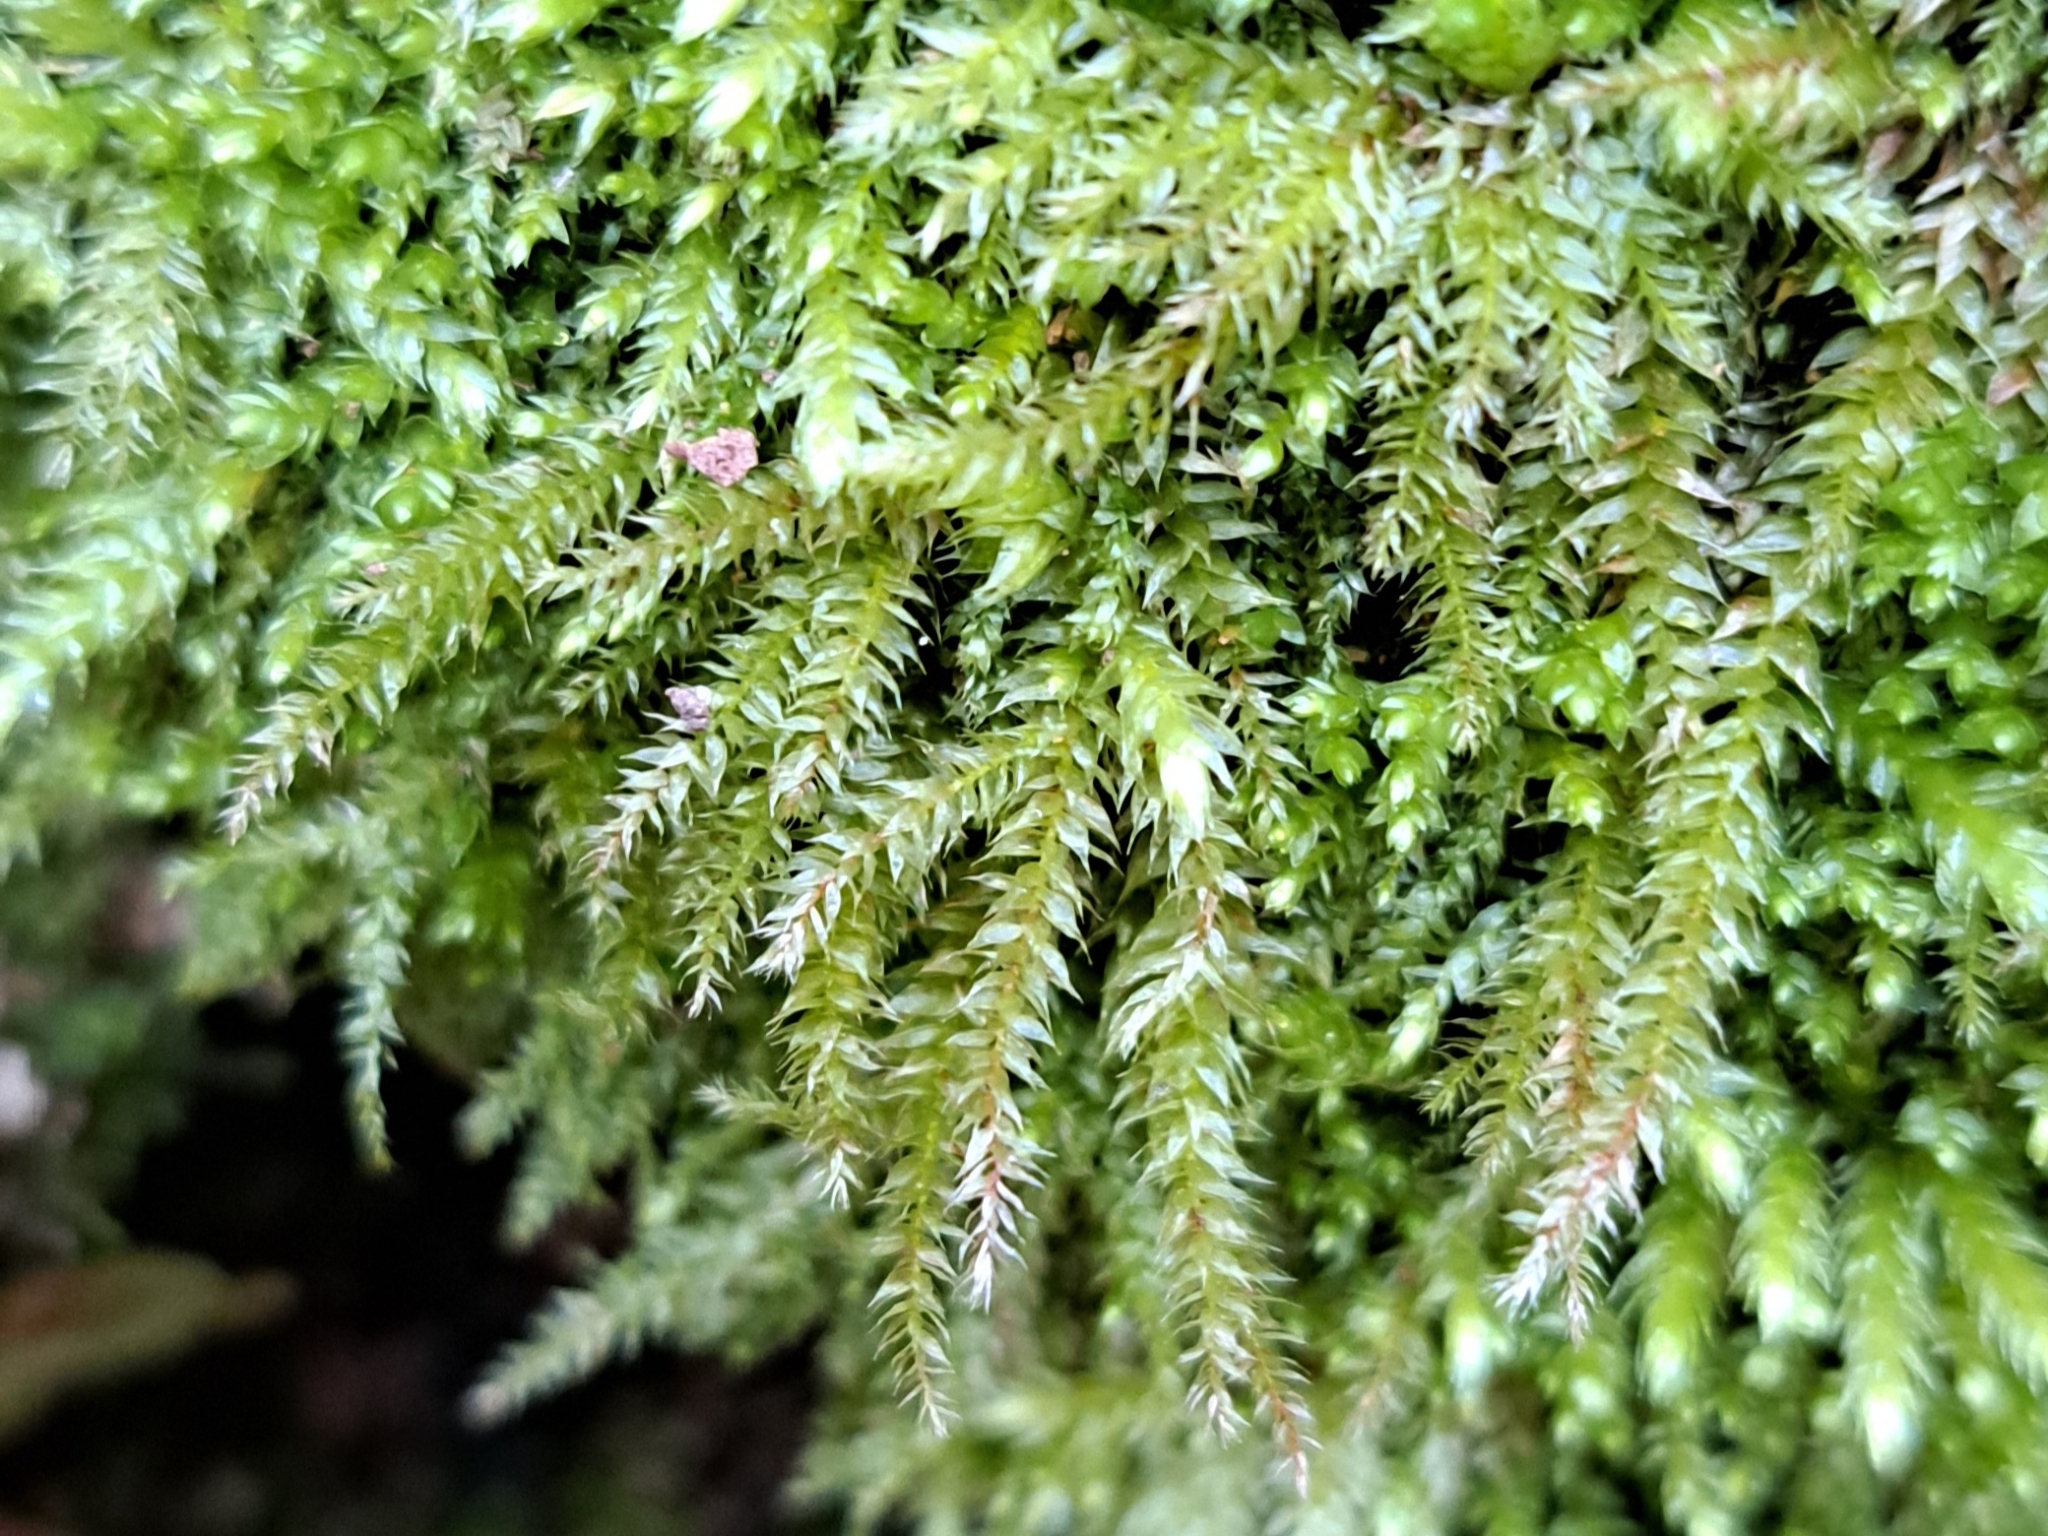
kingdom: Plantae
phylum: Bryophyta
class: Bryopsida
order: Hypnales
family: Brachytheciaceae
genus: Oxyrrhynchium
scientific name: Oxyrrhynchium hians
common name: Spreading beaked moss
